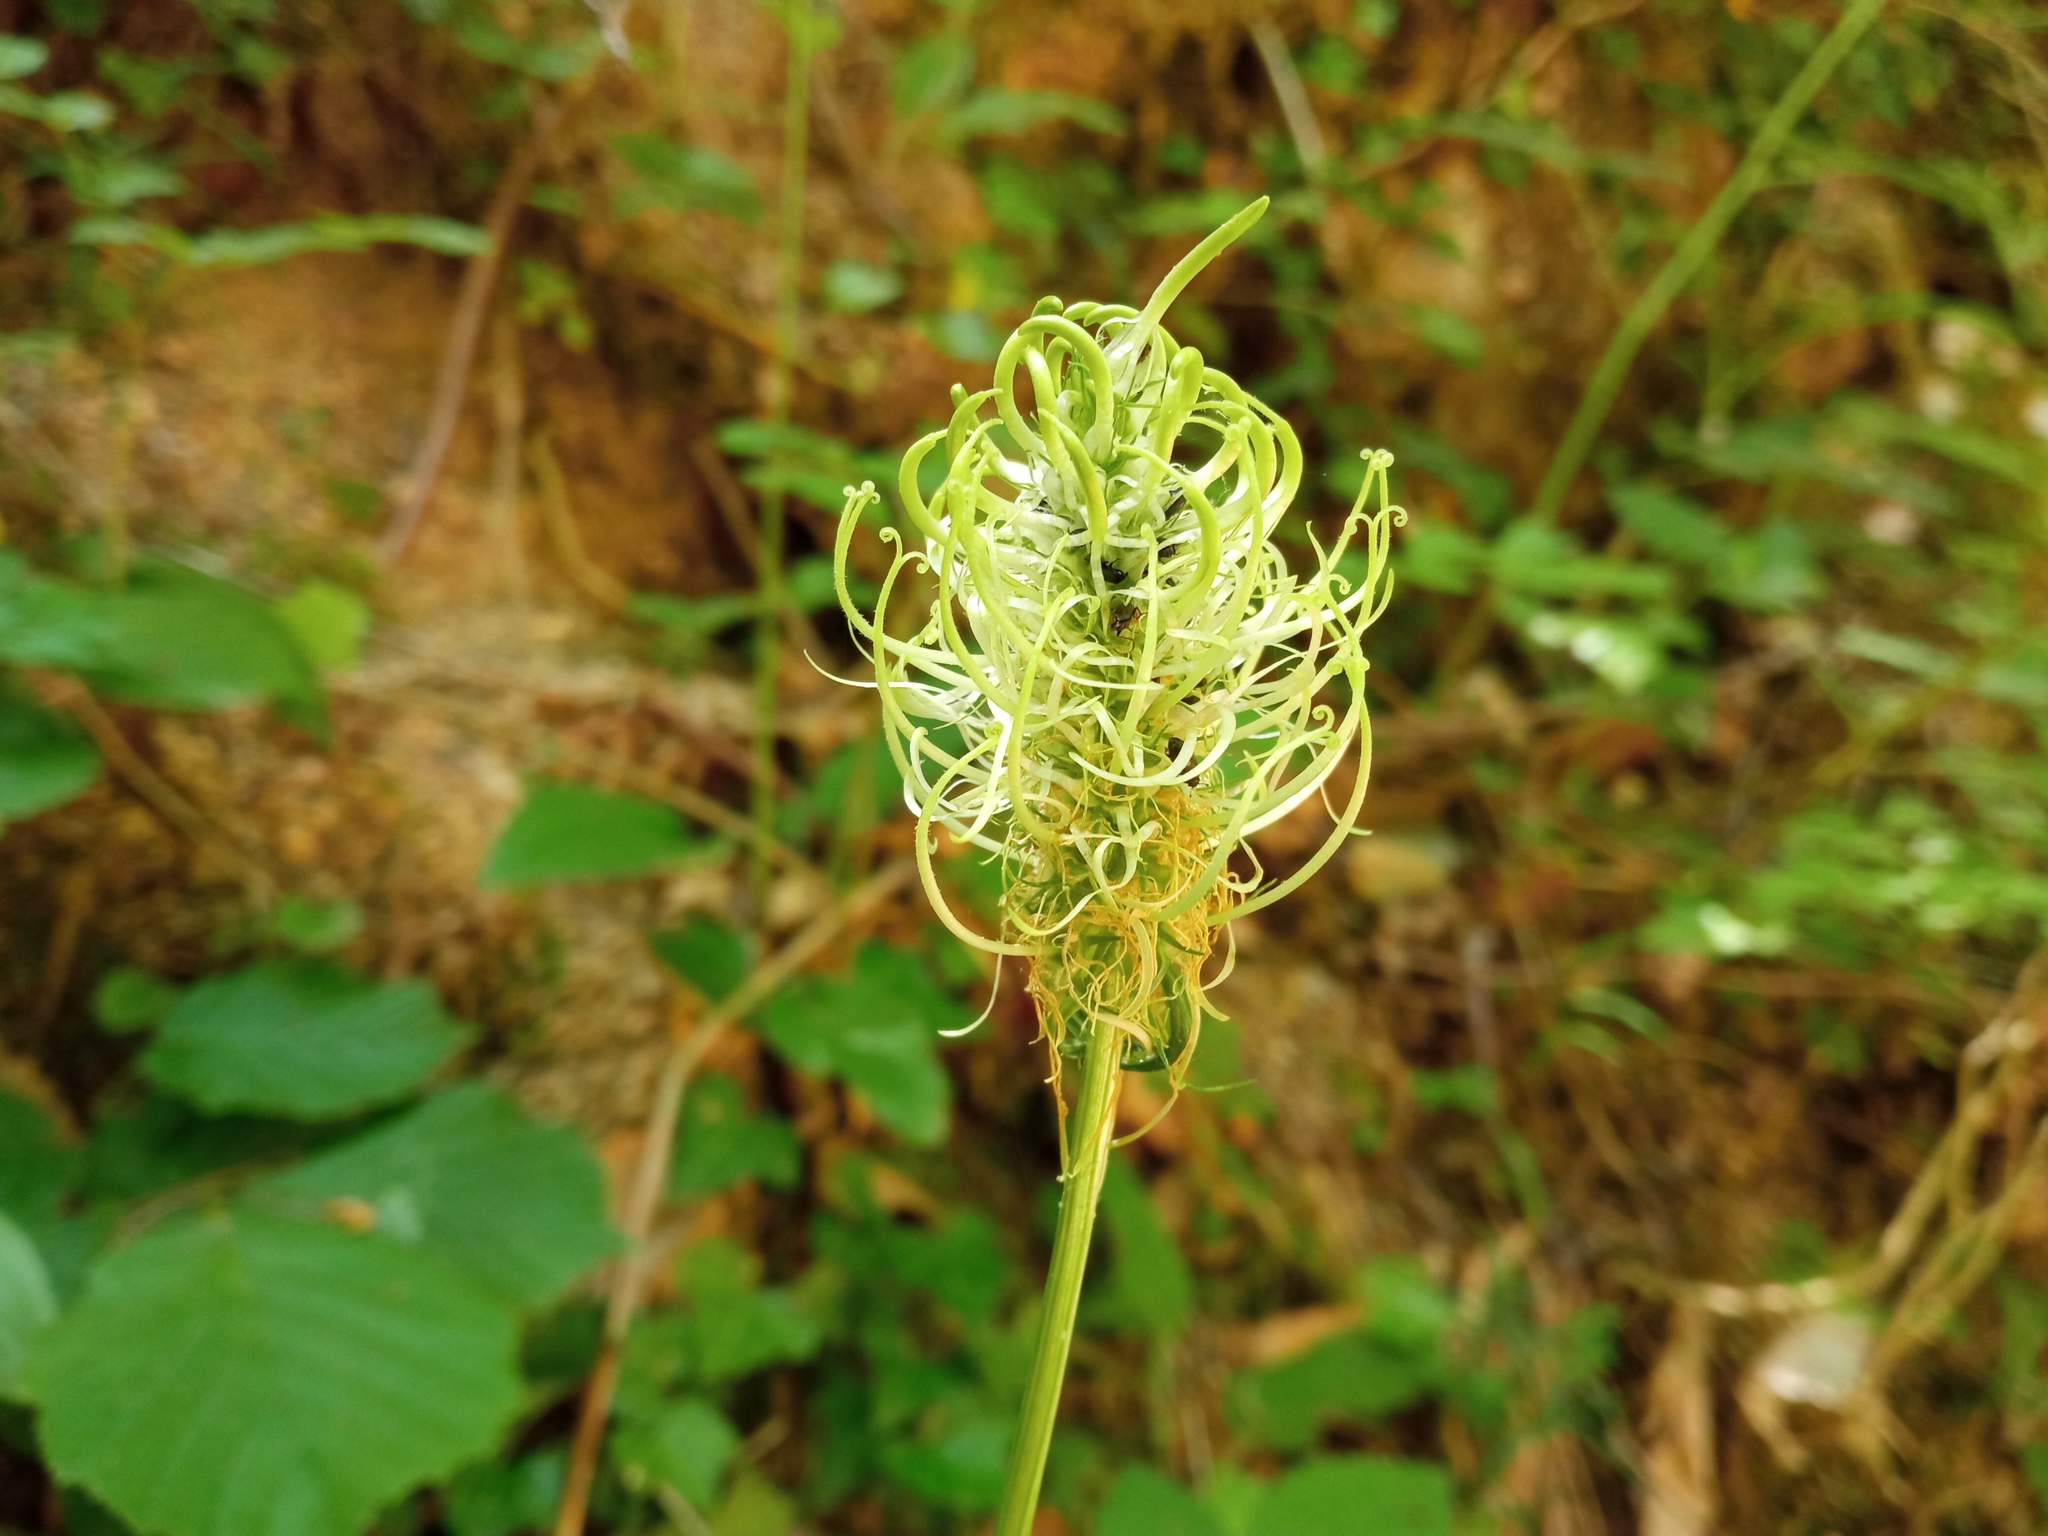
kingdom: Plantae
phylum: Tracheophyta
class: Magnoliopsida
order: Asterales
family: Campanulaceae
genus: Phyteuma
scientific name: Phyteuma spicatum
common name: Spiked rampion
